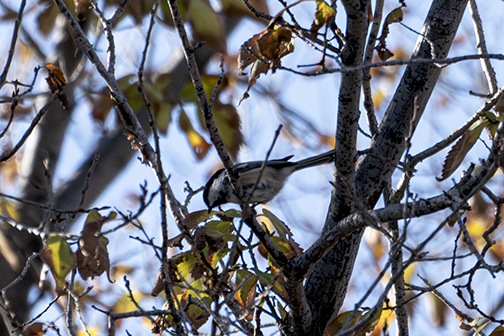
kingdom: Animalia
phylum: Chordata
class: Aves
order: Passeriformes
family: Paridae
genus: Poecile
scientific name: Poecile atricapillus
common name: Black-capped chickadee
